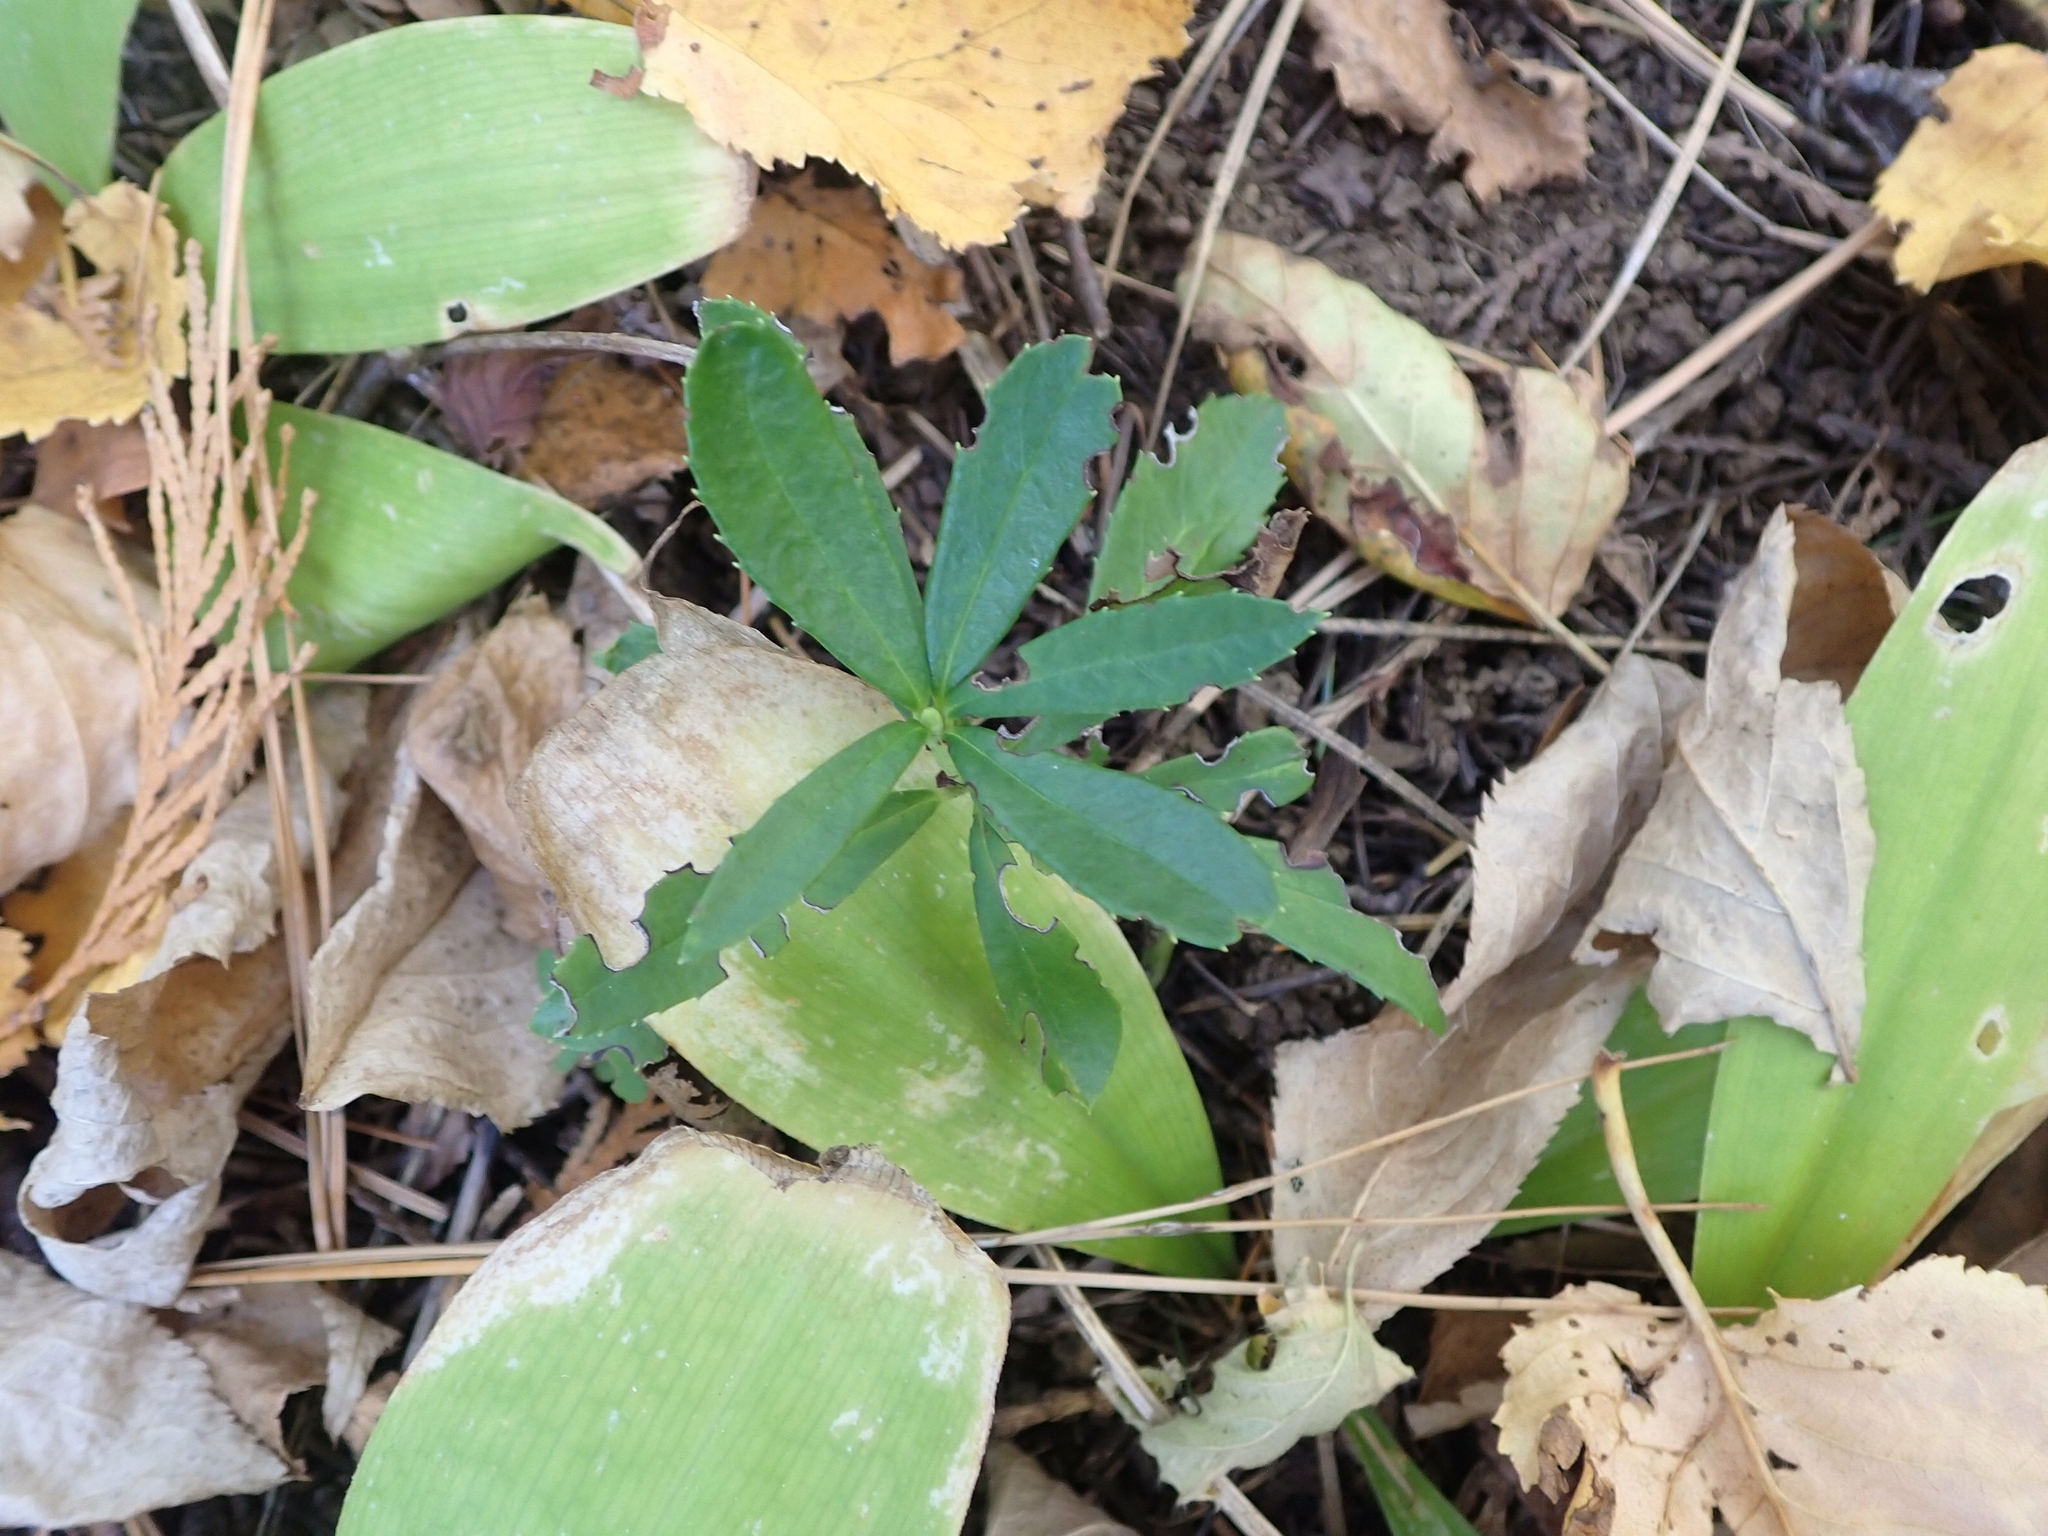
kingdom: Plantae
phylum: Tracheophyta
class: Magnoliopsida
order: Ericales
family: Ericaceae
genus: Chimaphila
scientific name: Chimaphila umbellata
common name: Pipsissewa
